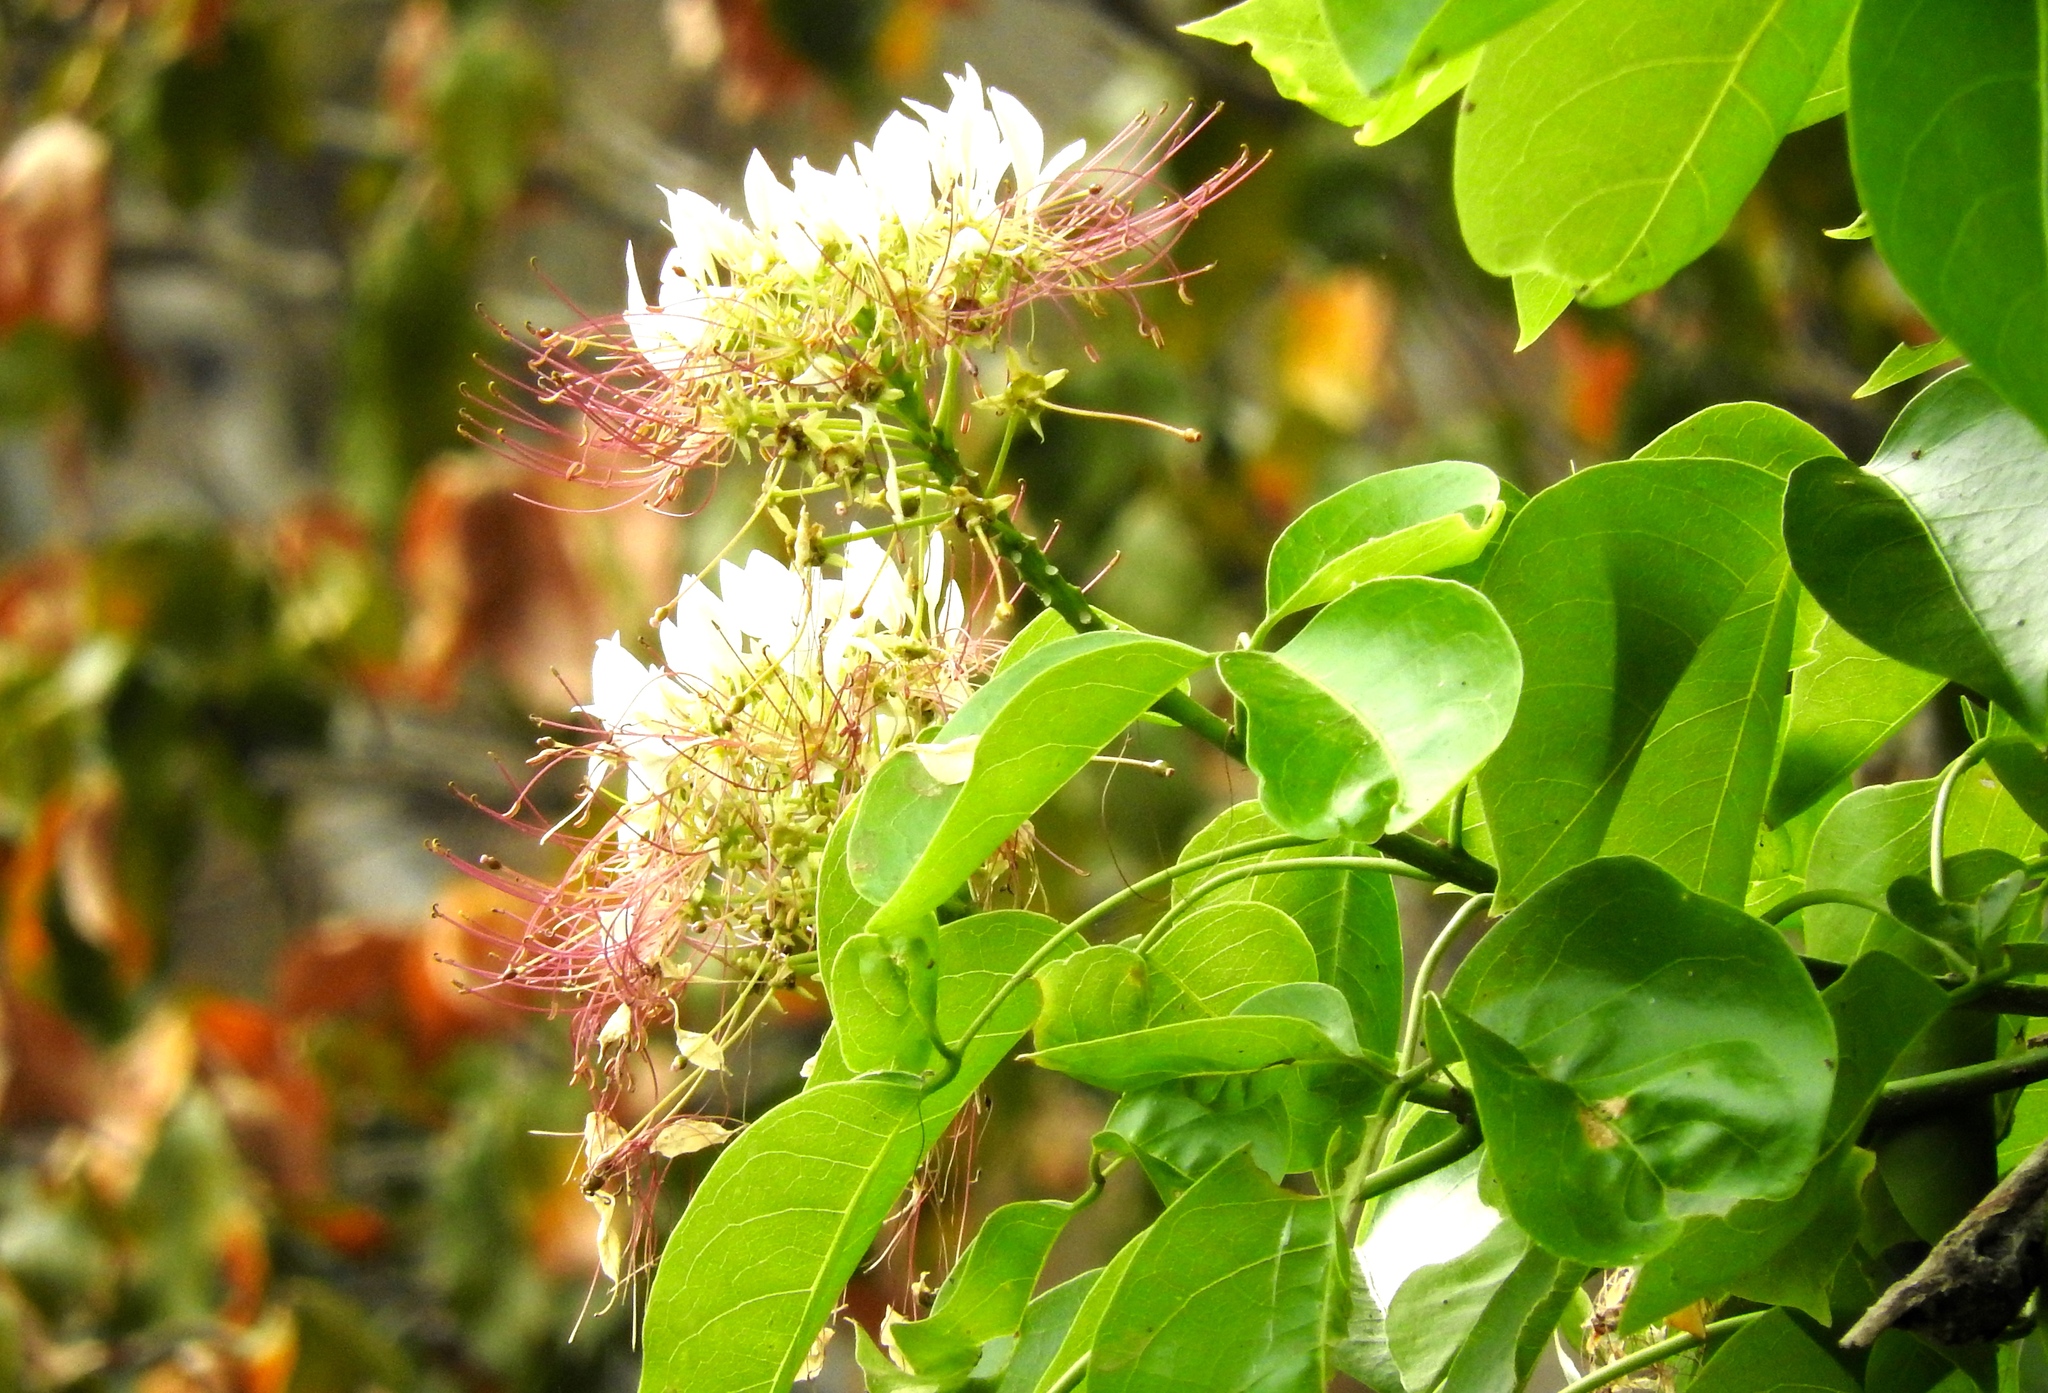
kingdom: Plantae
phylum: Tracheophyta
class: Magnoliopsida
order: Brassicales
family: Capparaceae
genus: Crateva
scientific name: Crateva tapia
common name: Garlic-pear
